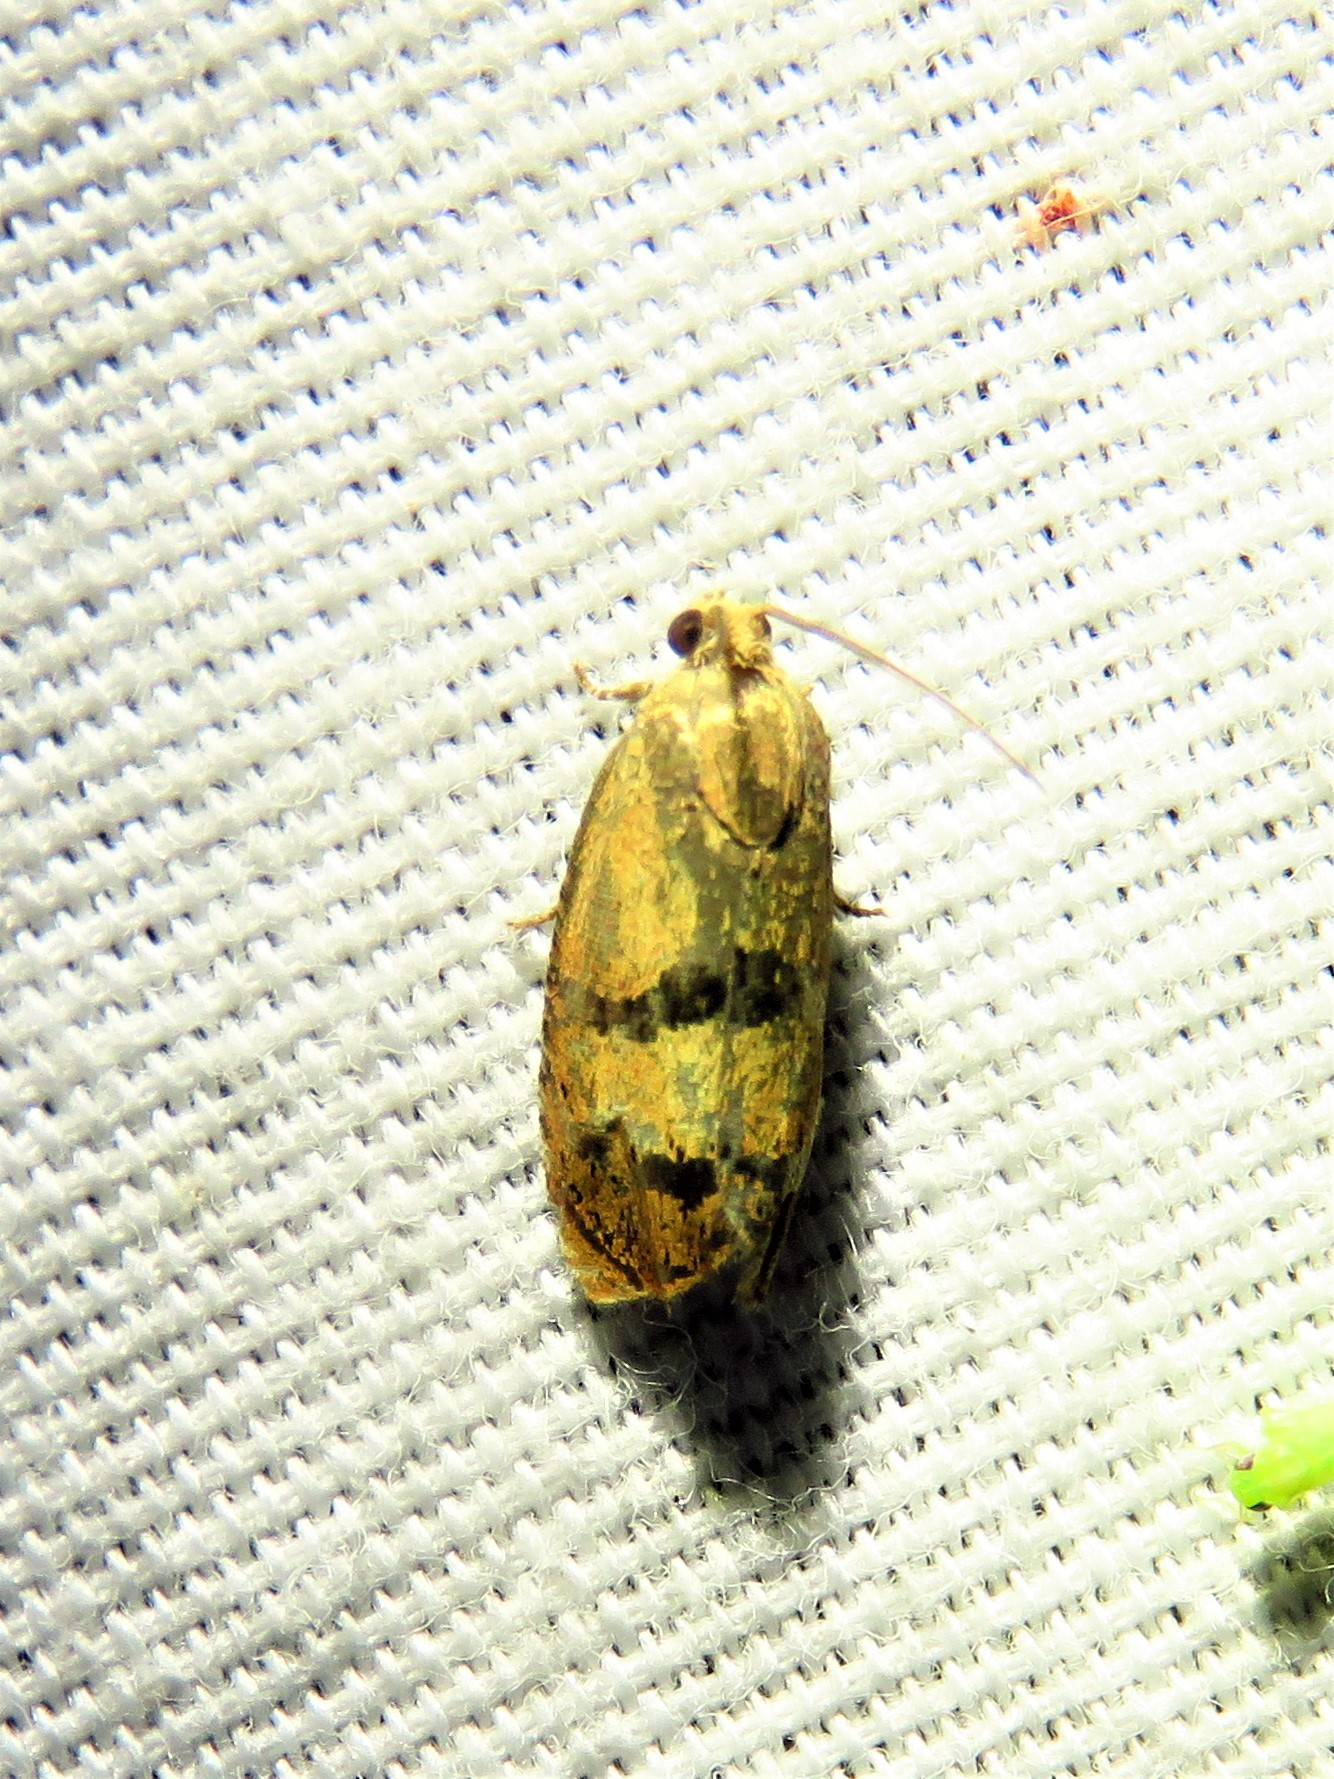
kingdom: Animalia
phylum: Arthropoda
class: Insecta
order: Lepidoptera
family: Tortricidae
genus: Cydia
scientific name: Cydia latiferreana
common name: Filbertworm moth
